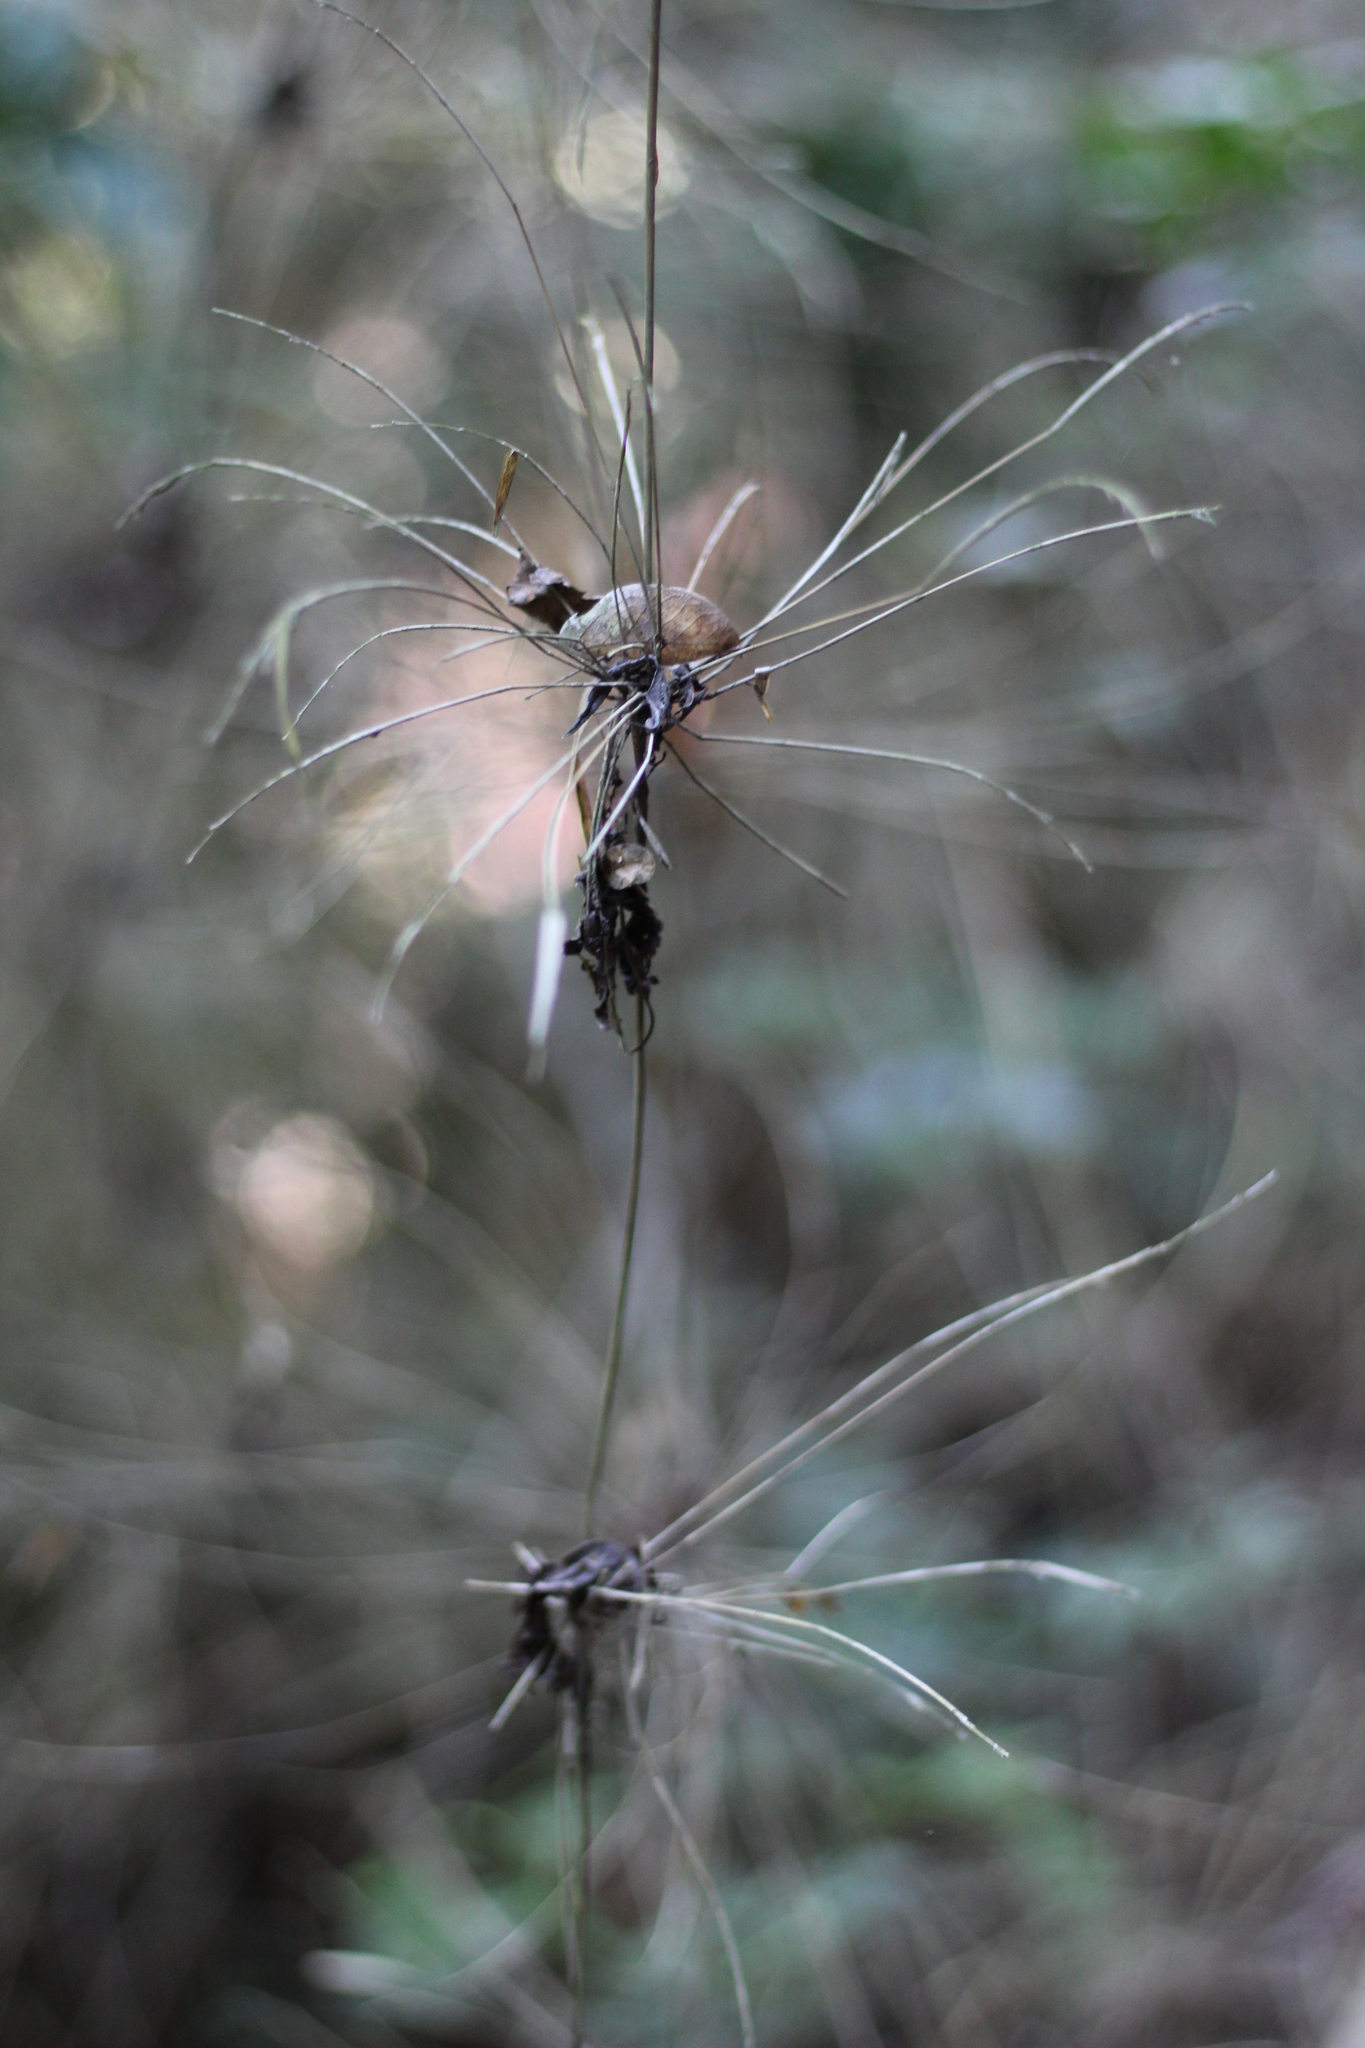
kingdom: Plantae
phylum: Tracheophyta
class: Liliopsida
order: Poales
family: Poaceae
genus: Rhipidocladum
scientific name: Rhipidocladum racemiflorum
